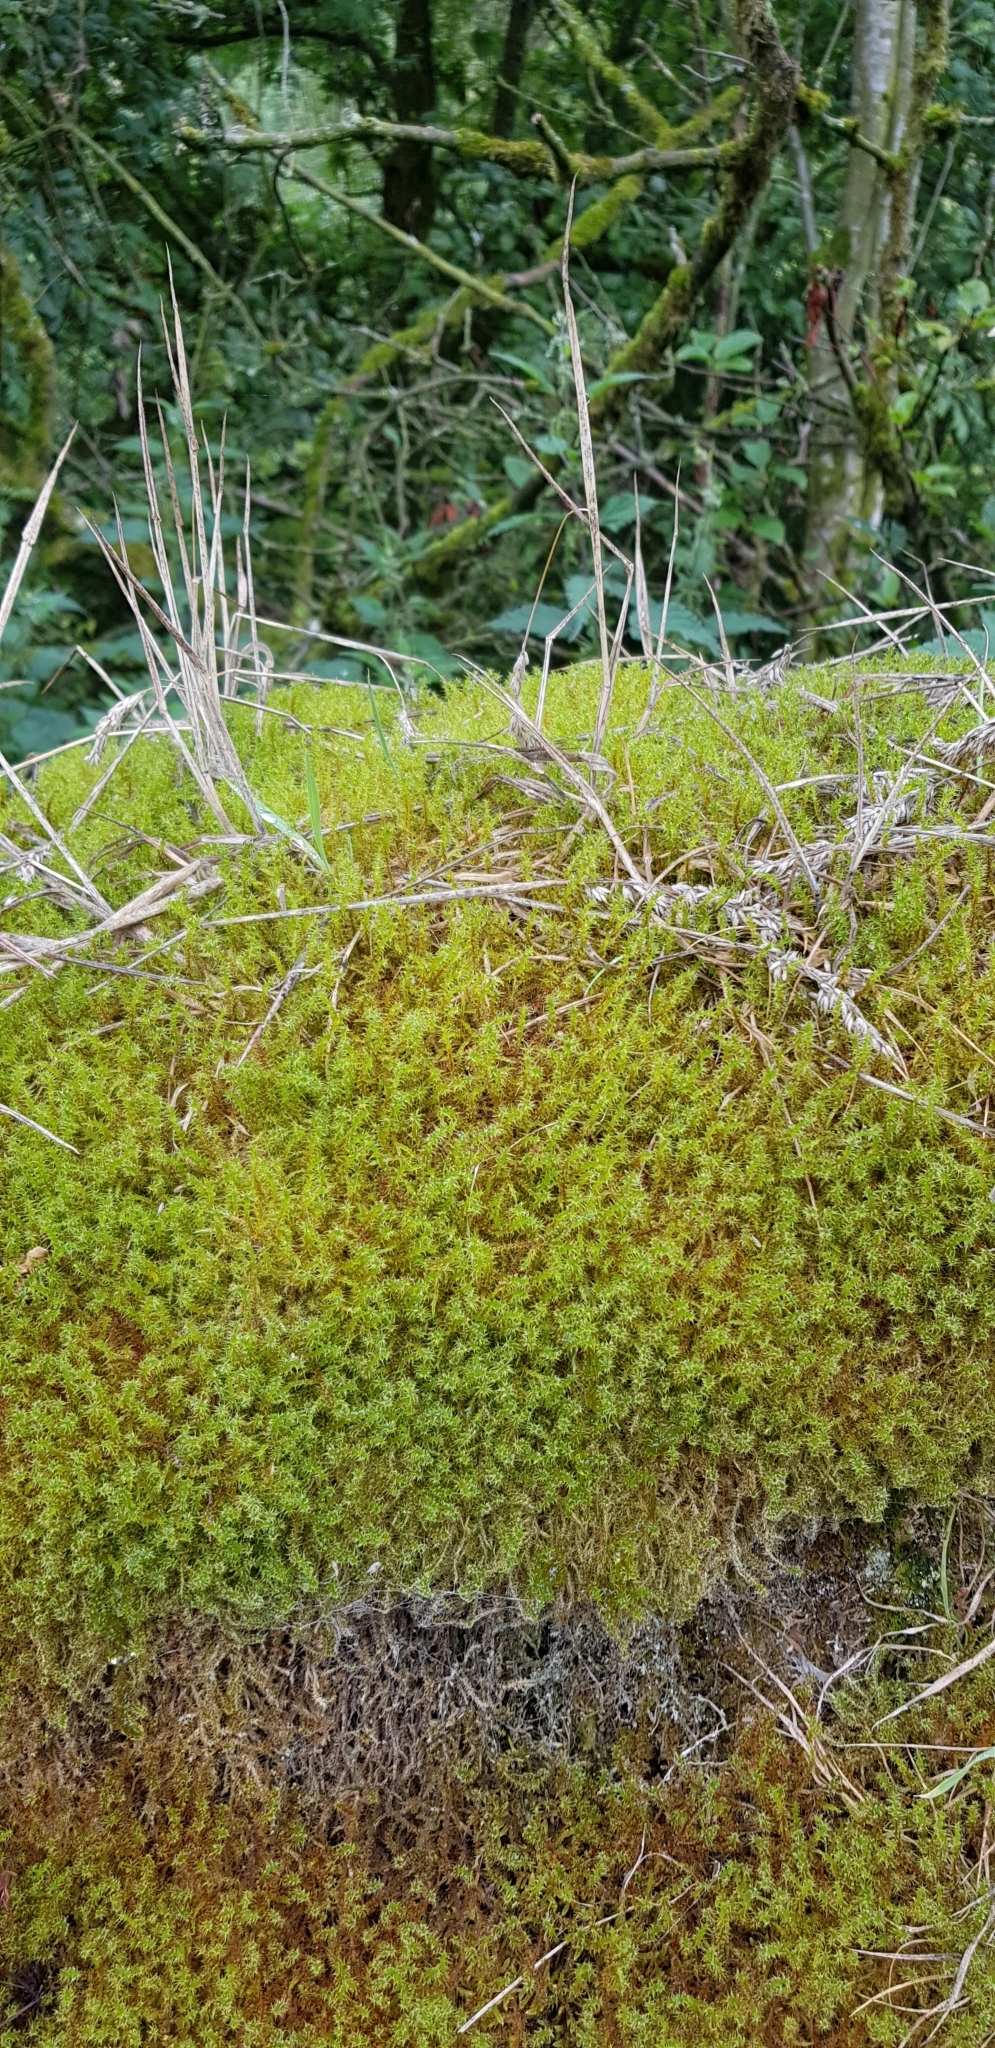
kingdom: Plantae
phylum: Bryophyta
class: Bryopsida
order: Hypnales
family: Hylocomiaceae
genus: Rhytidiadelphus
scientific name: Rhytidiadelphus squarrosus
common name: Springy turf-moss
